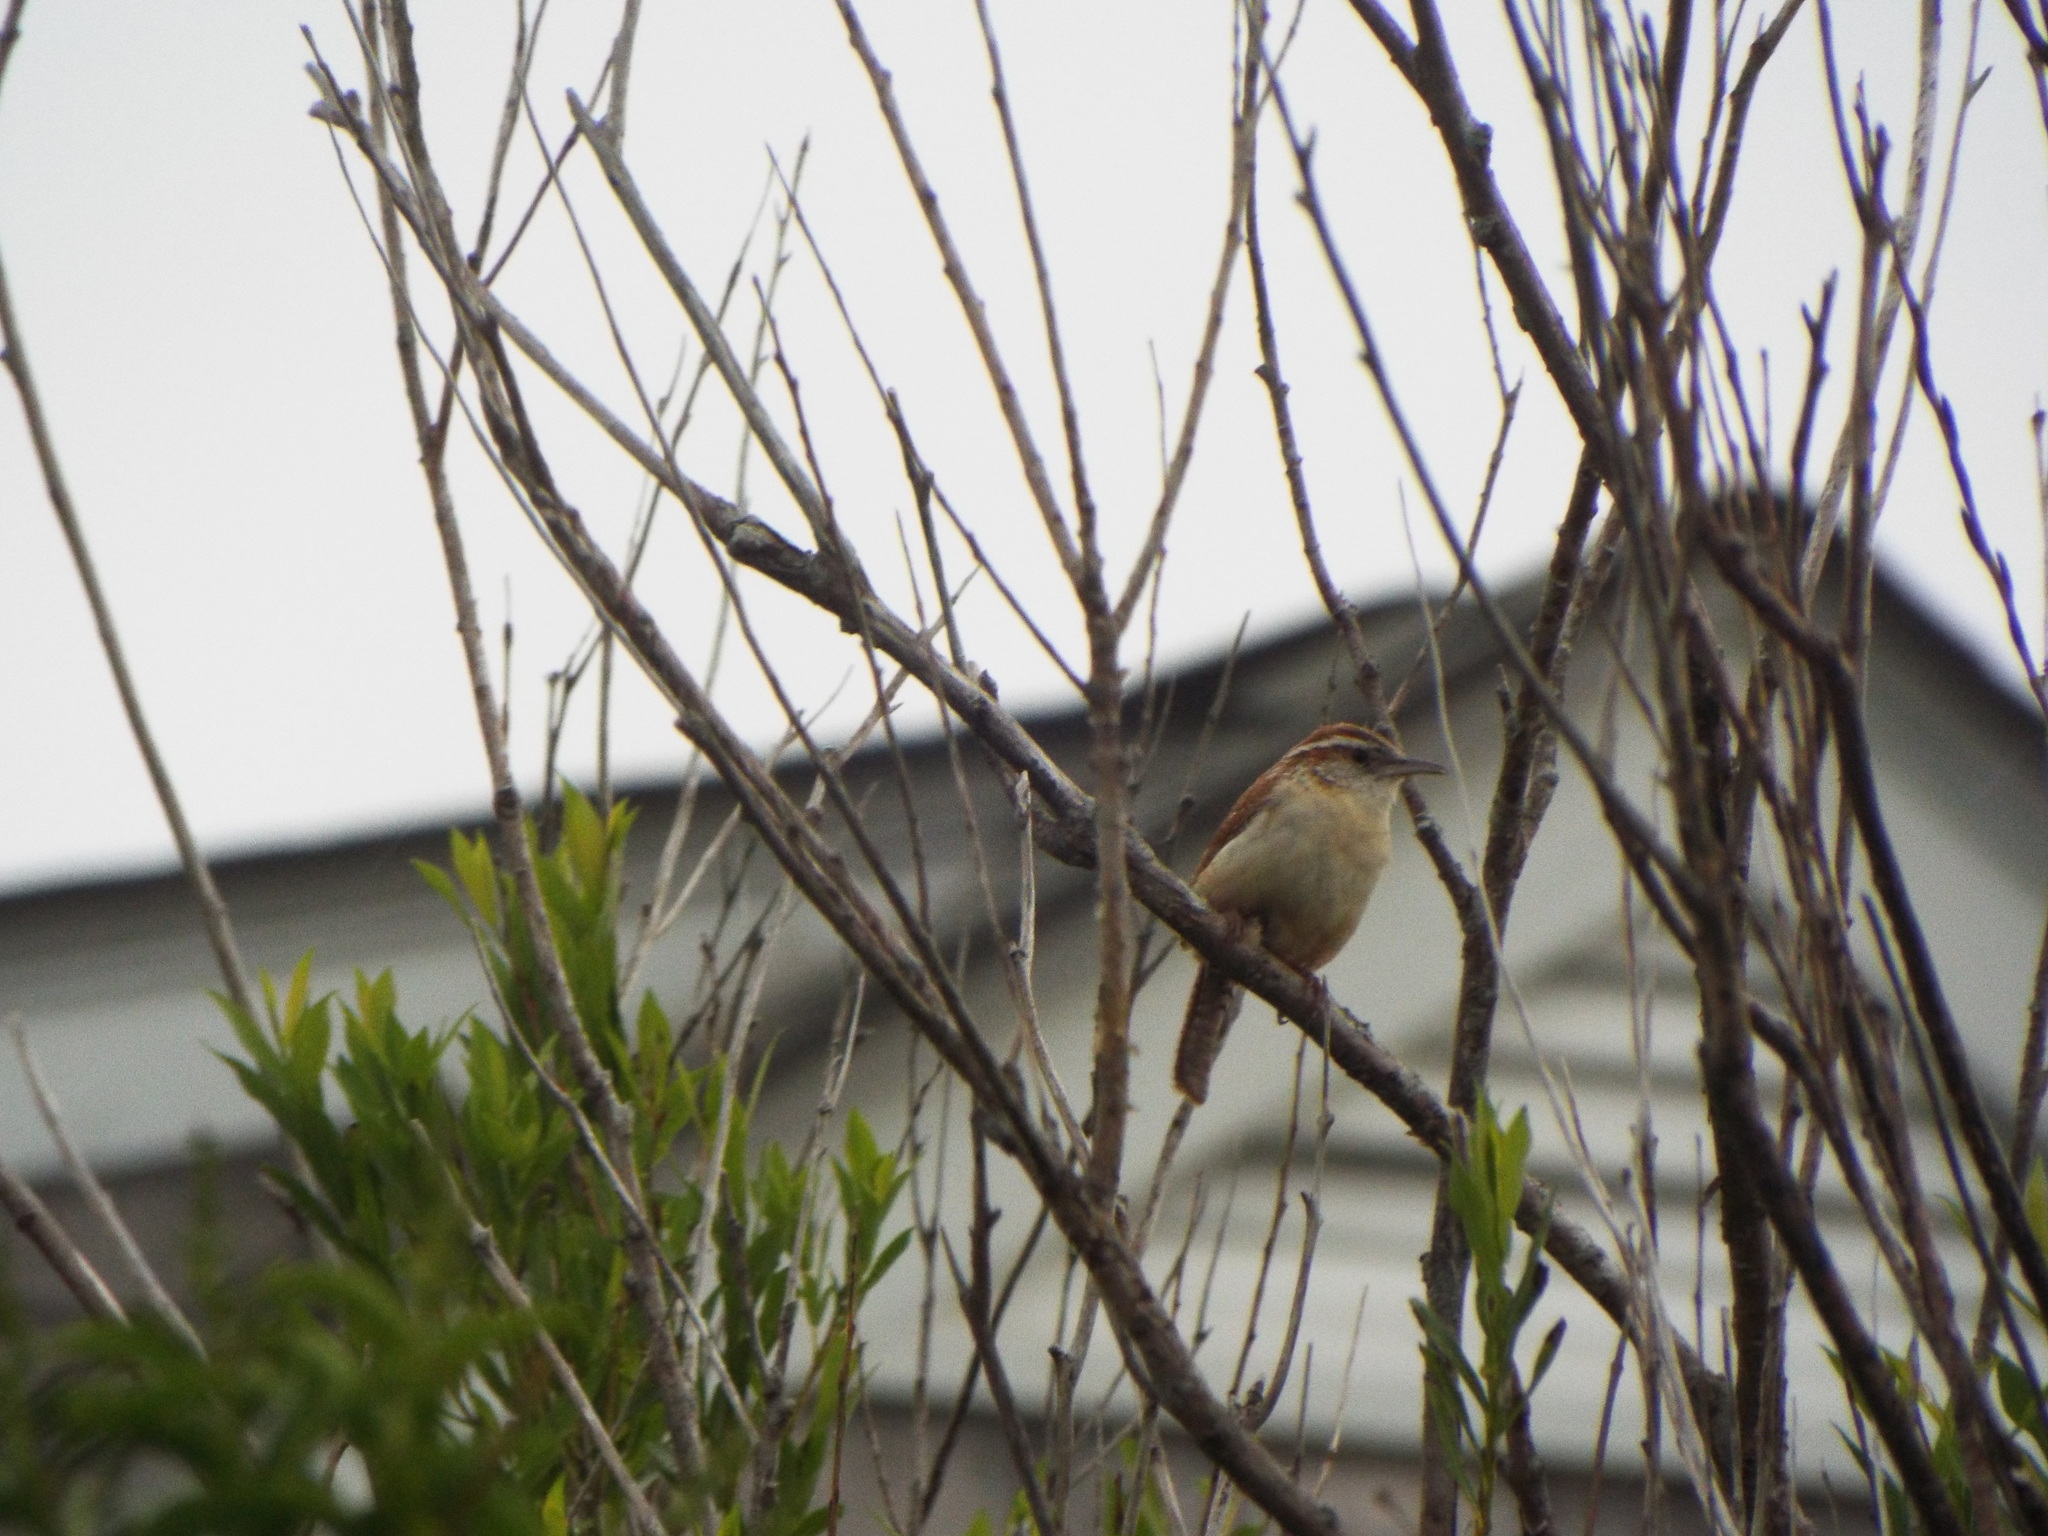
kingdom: Animalia
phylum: Chordata
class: Aves
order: Passeriformes
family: Troglodytidae
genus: Thryothorus
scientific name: Thryothorus ludovicianus
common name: Carolina wren
